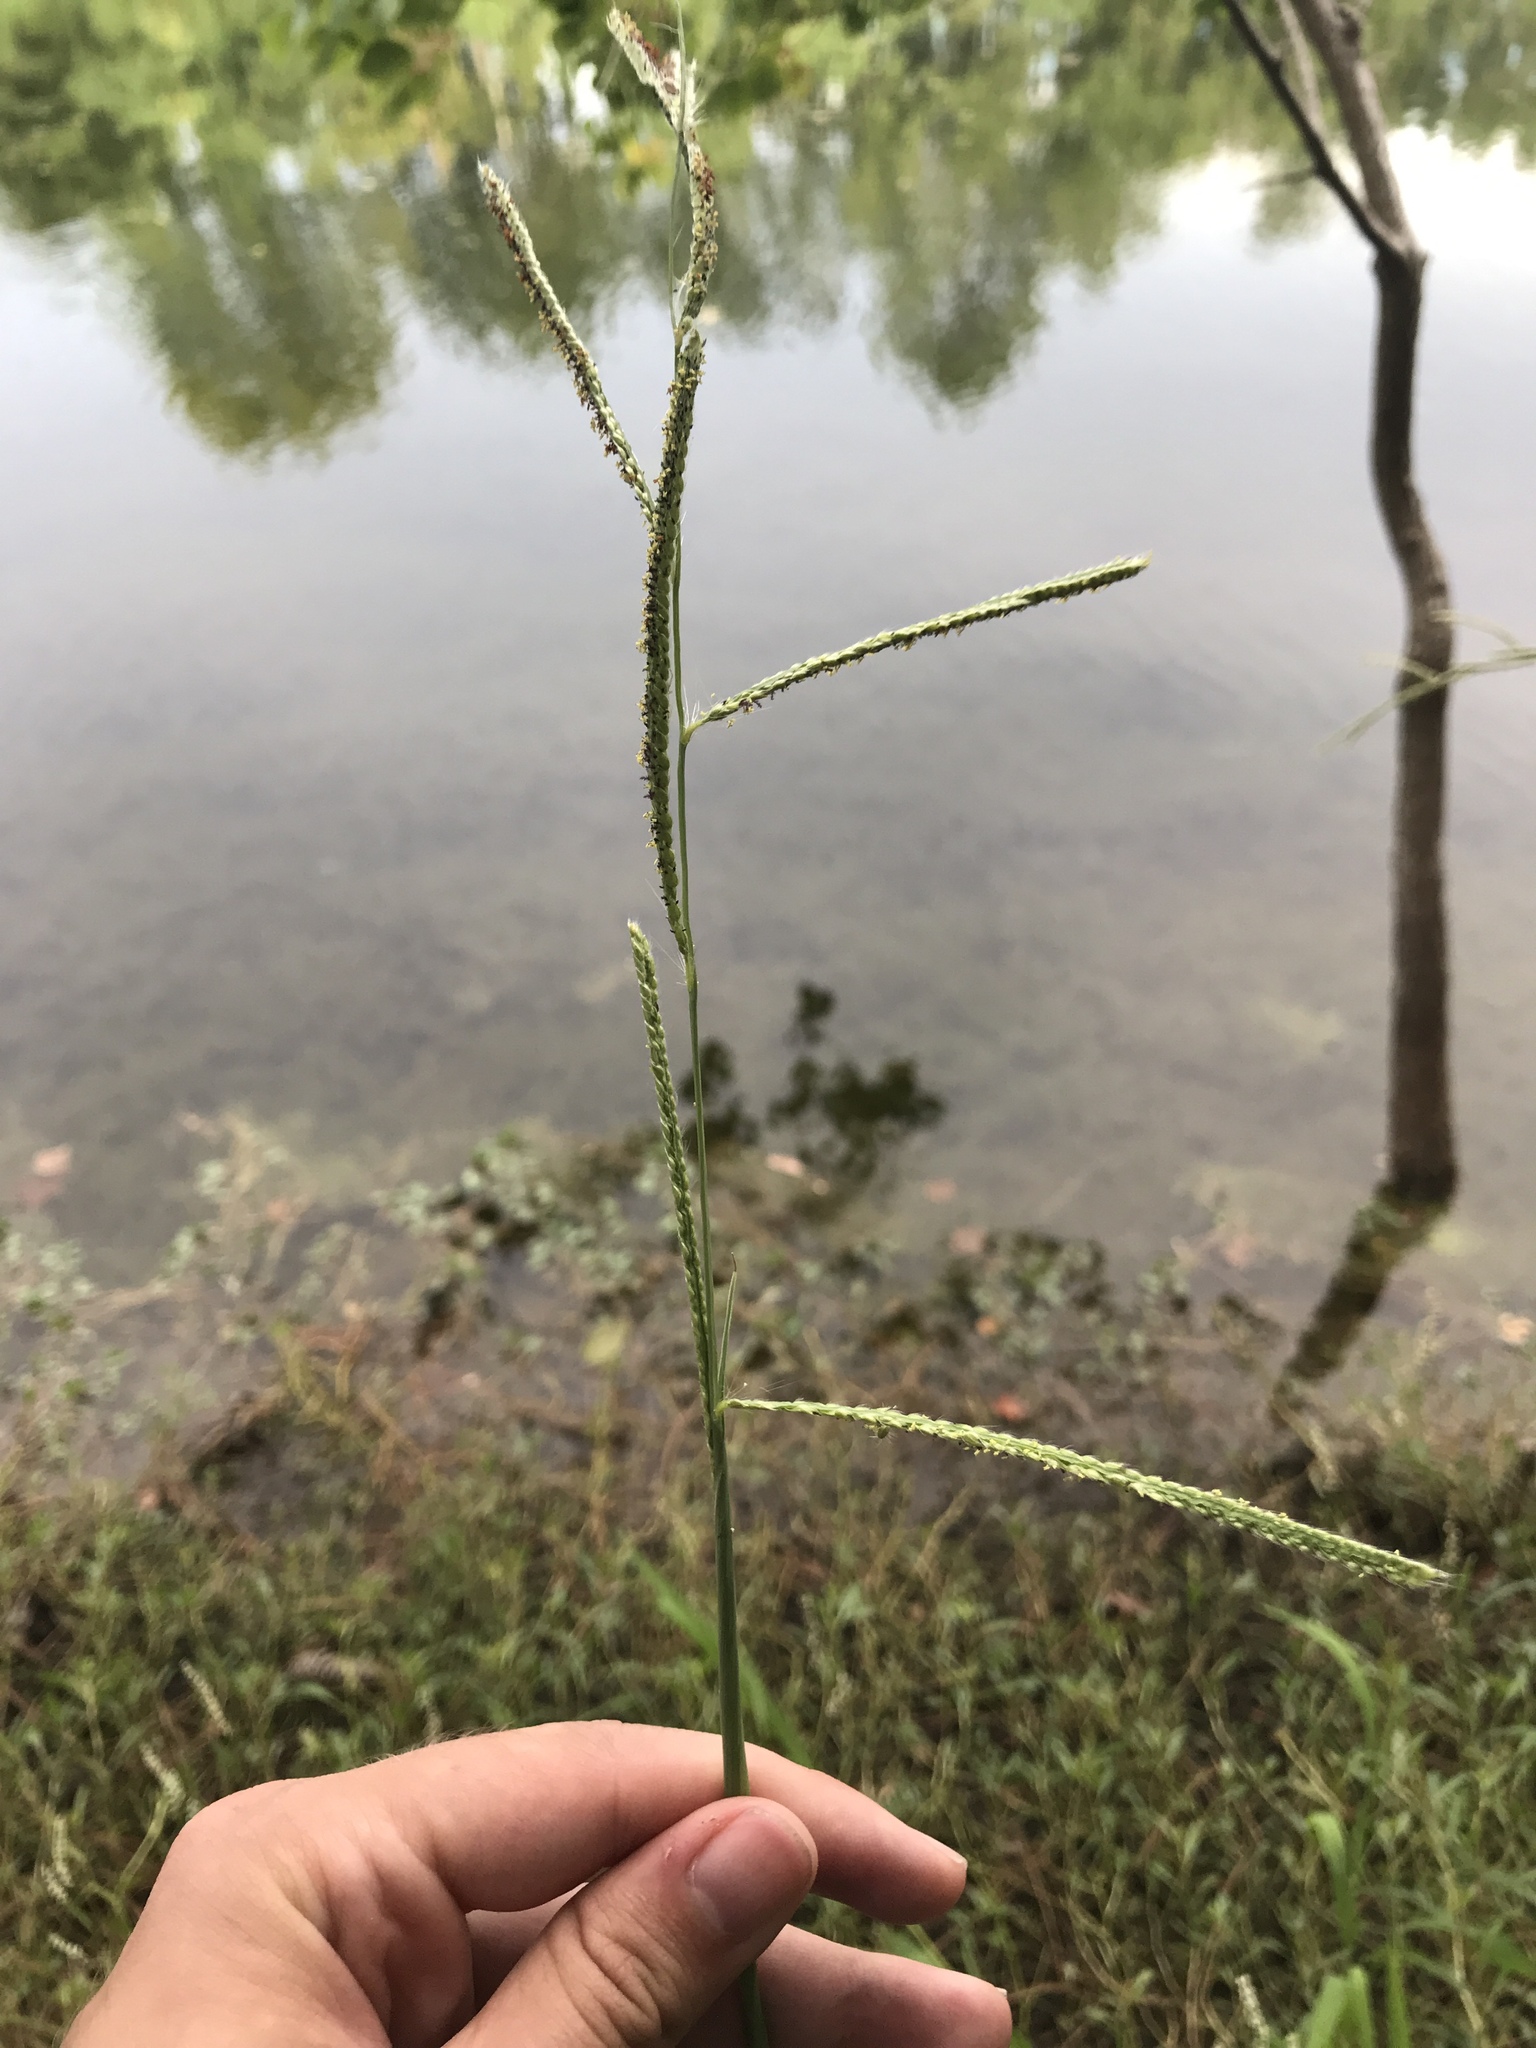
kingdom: Plantae
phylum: Tracheophyta
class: Liliopsida
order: Poales
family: Poaceae
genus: Paspalum
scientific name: Paspalum urvillei
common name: Vasey's grass
